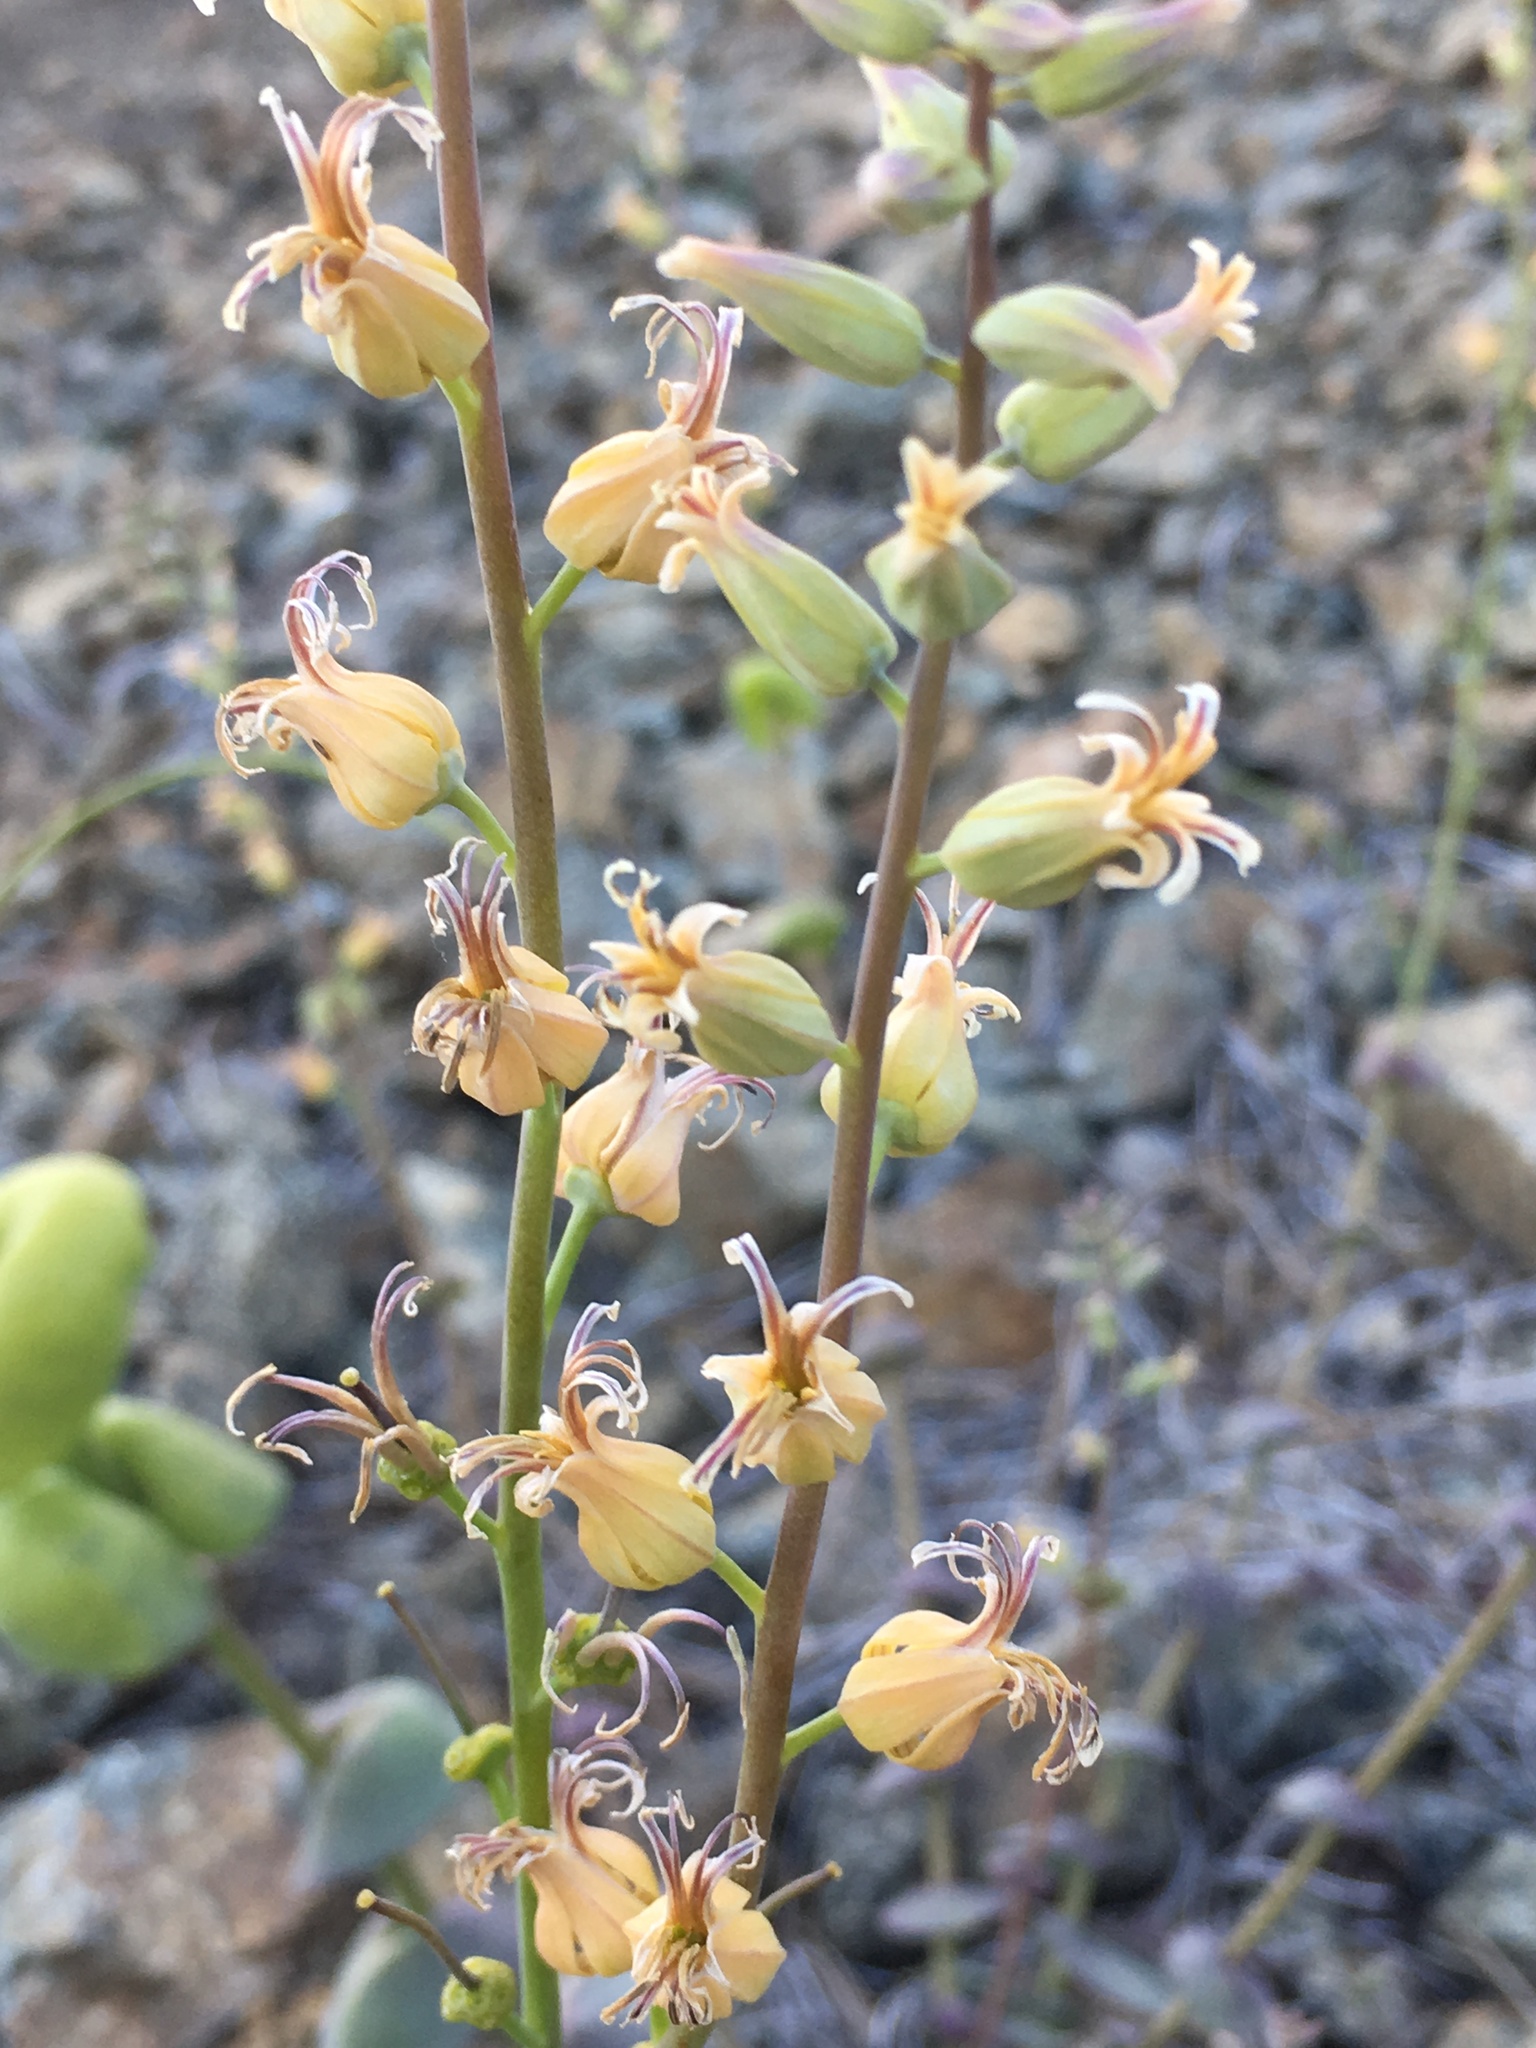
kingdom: Plantae
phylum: Tracheophyta
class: Magnoliopsida
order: Brassicales
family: Brassicaceae
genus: Streptanthus
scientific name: Streptanthus tortuosus
